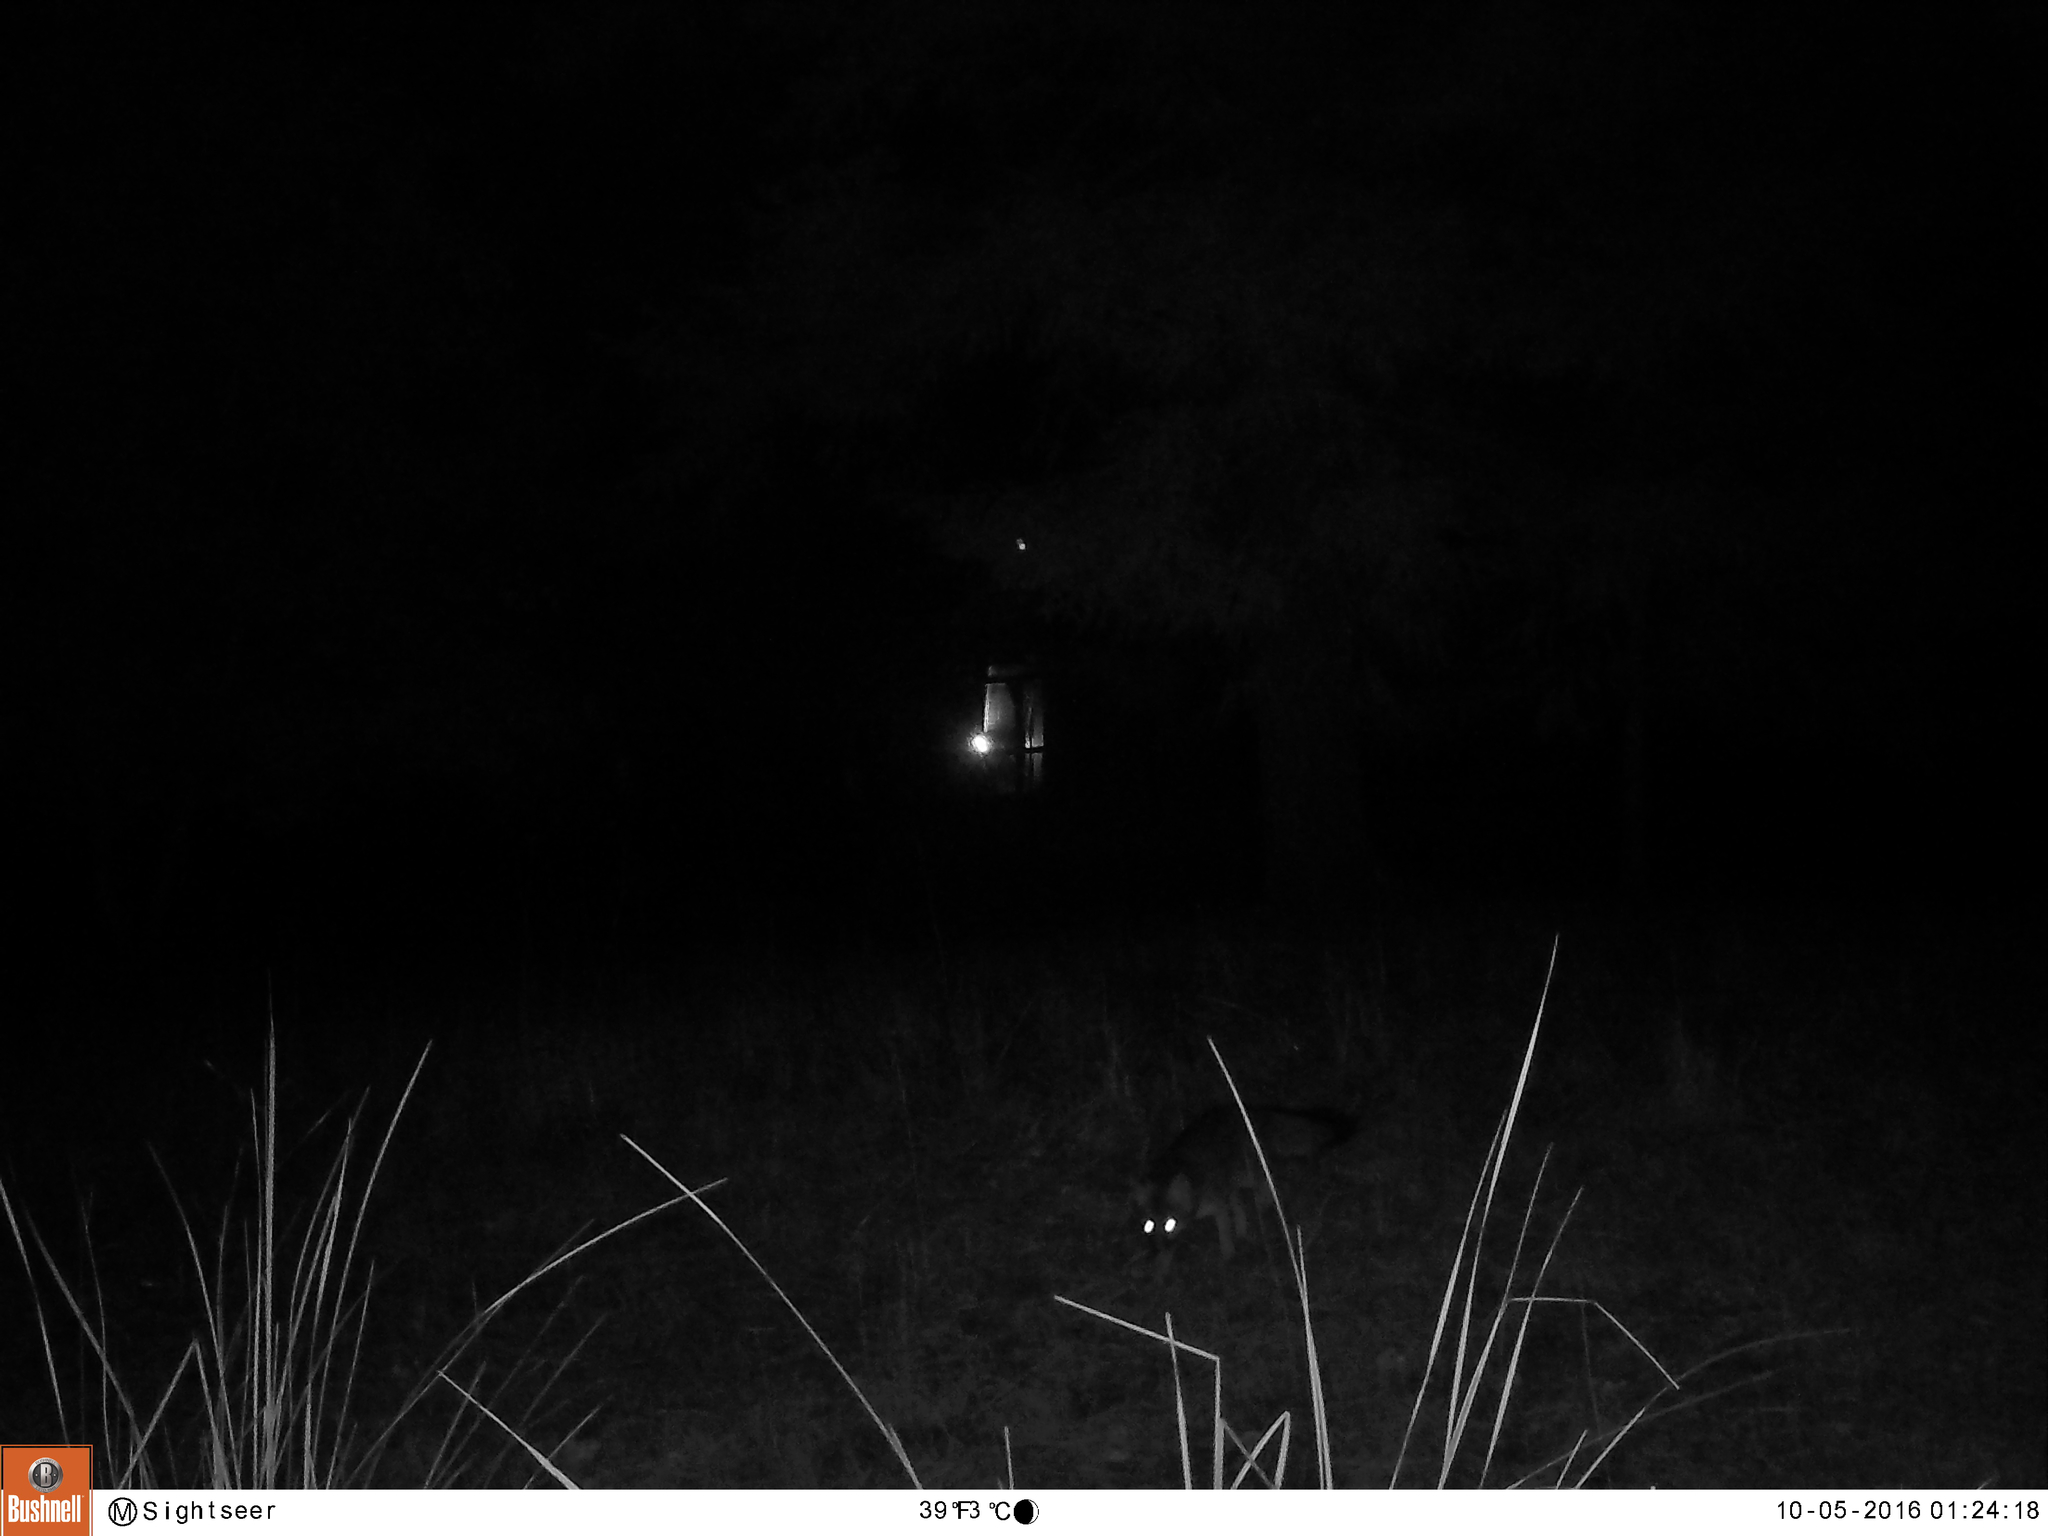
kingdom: Animalia
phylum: Chordata
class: Mammalia
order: Carnivora
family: Canidae
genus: Urocyon
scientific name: Urocyon cinereoargenteus
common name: Gray fox
